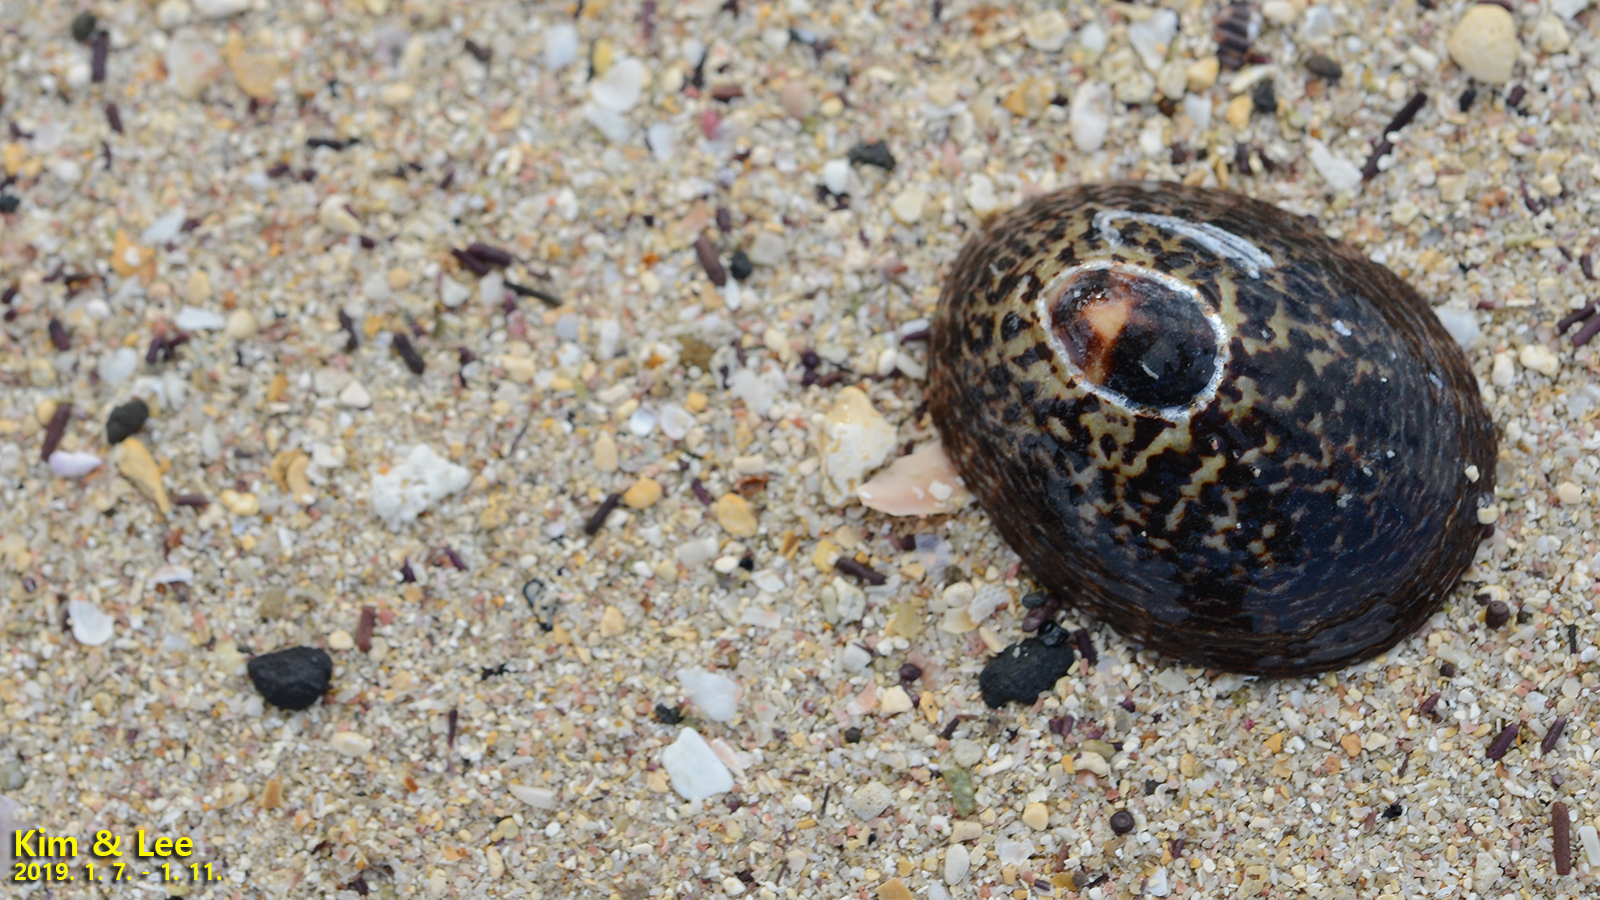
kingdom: Animalia
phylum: Mollusca
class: Gastropoda
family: Nacellidae
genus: Cellana
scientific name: Cellana grata
